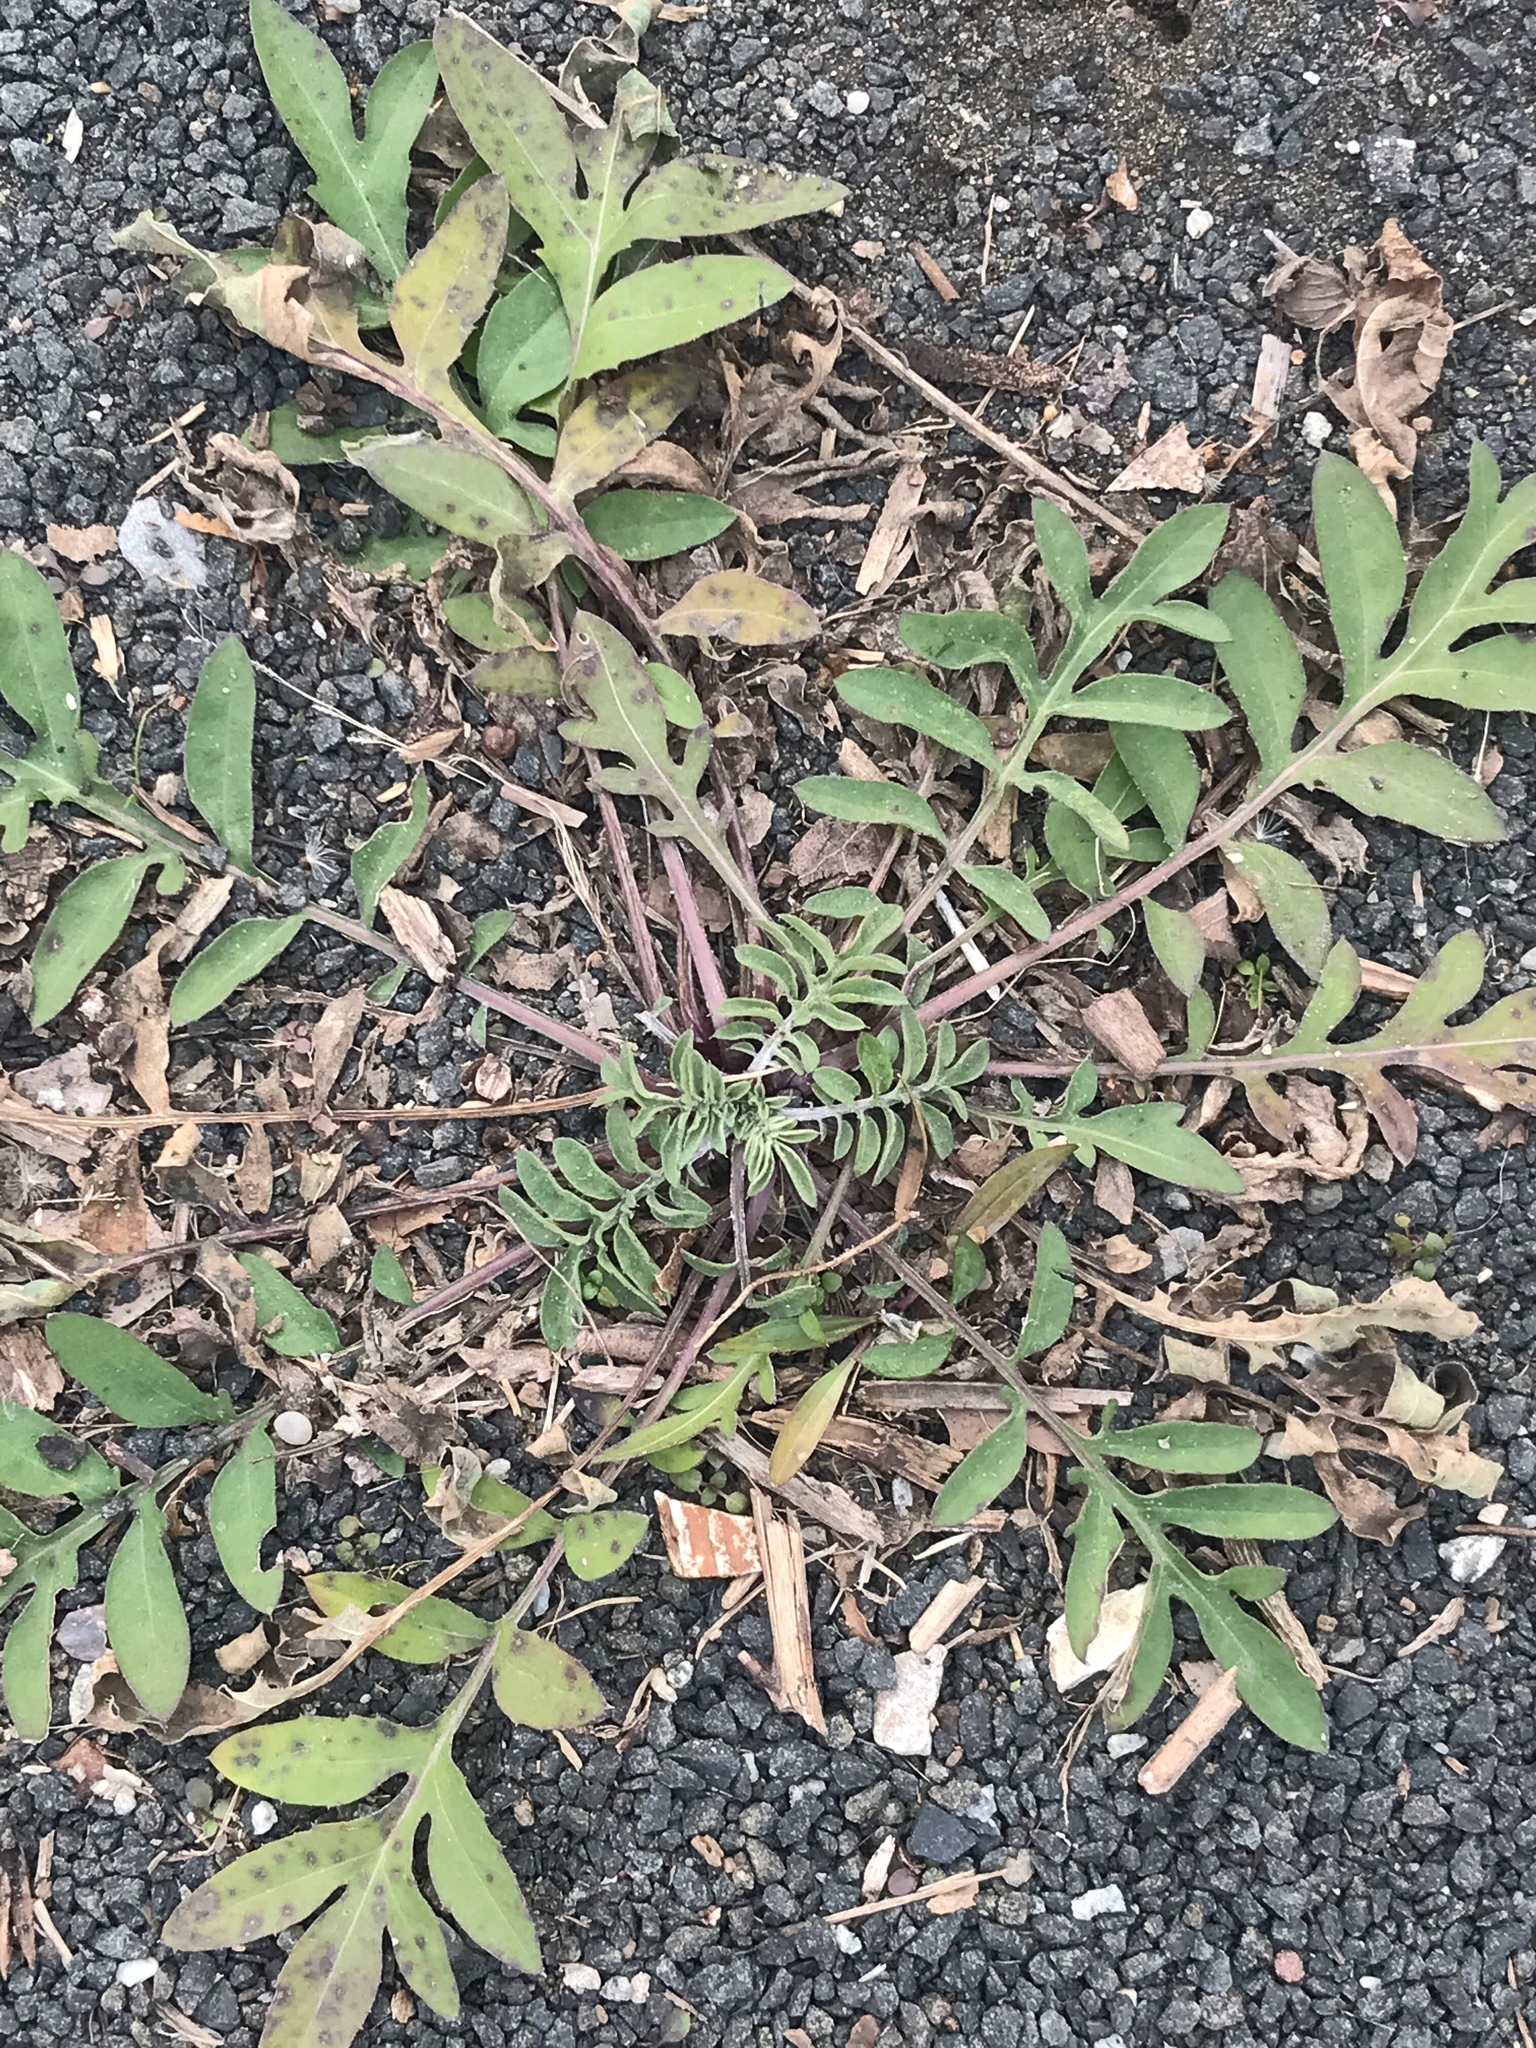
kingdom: Plantae
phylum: Tracheophyta
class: Magnoliopsida
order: Asterales
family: Asteraceae
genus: Centaurea
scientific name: Centaurea stoebe
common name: Spotted knapweed
